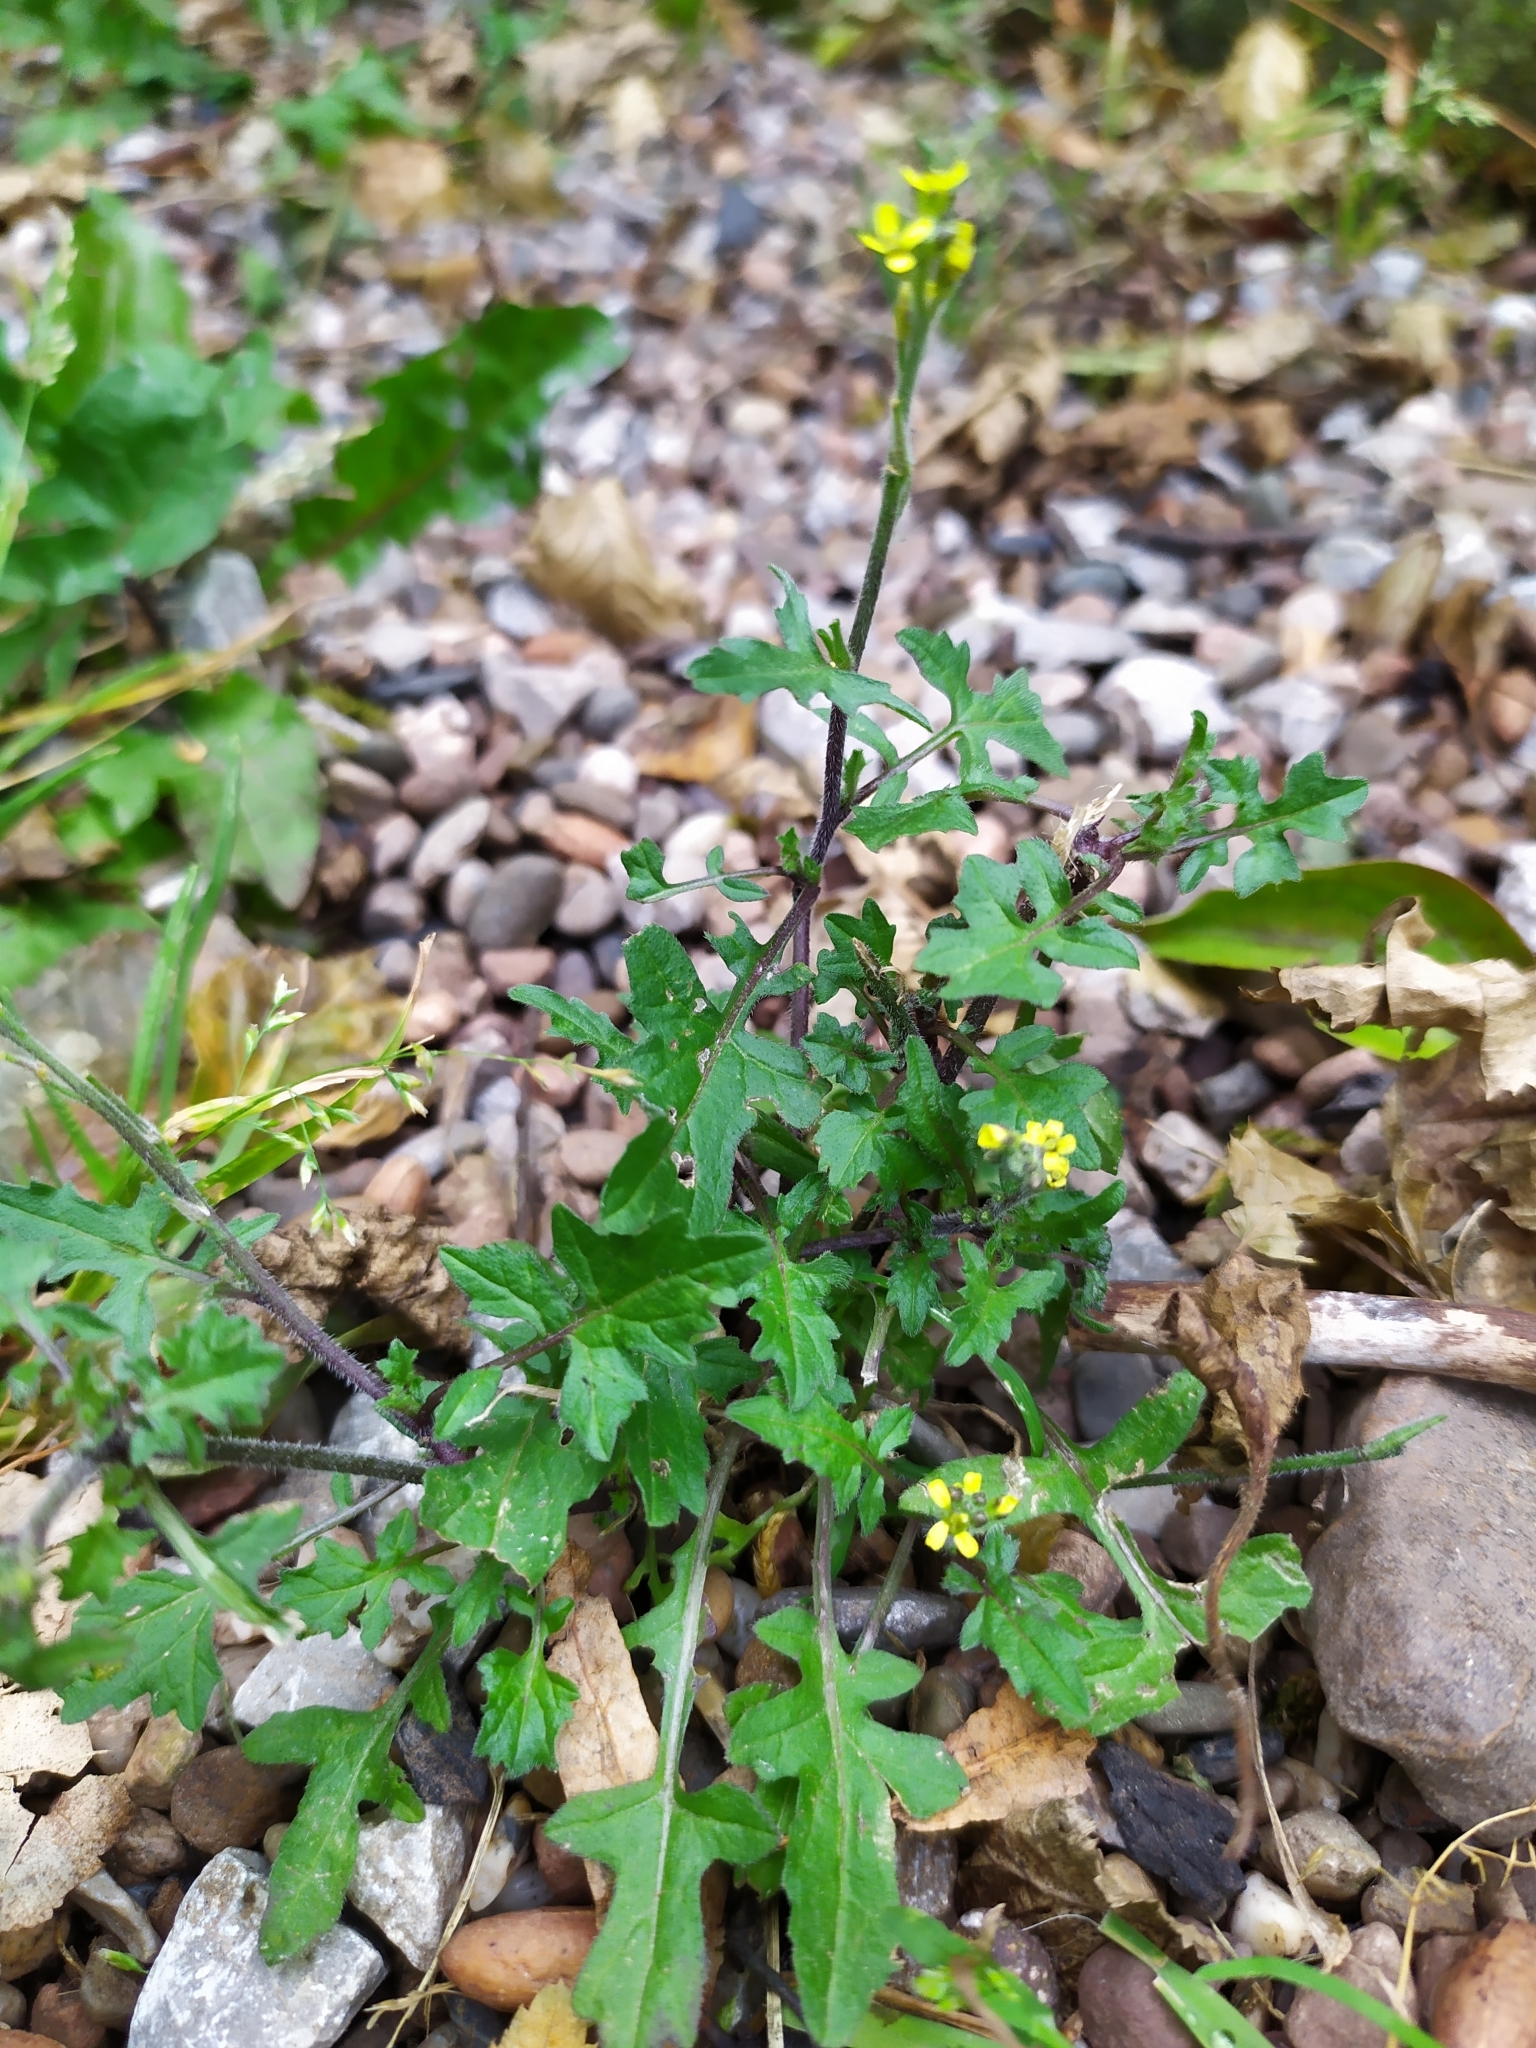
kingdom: Plantae
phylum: Tracheophyta
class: Magnoliopsida
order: Brassicales
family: Brassicaceae
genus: Sisymbrium
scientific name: Sisymbrium officinale
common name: Hedge mustard
